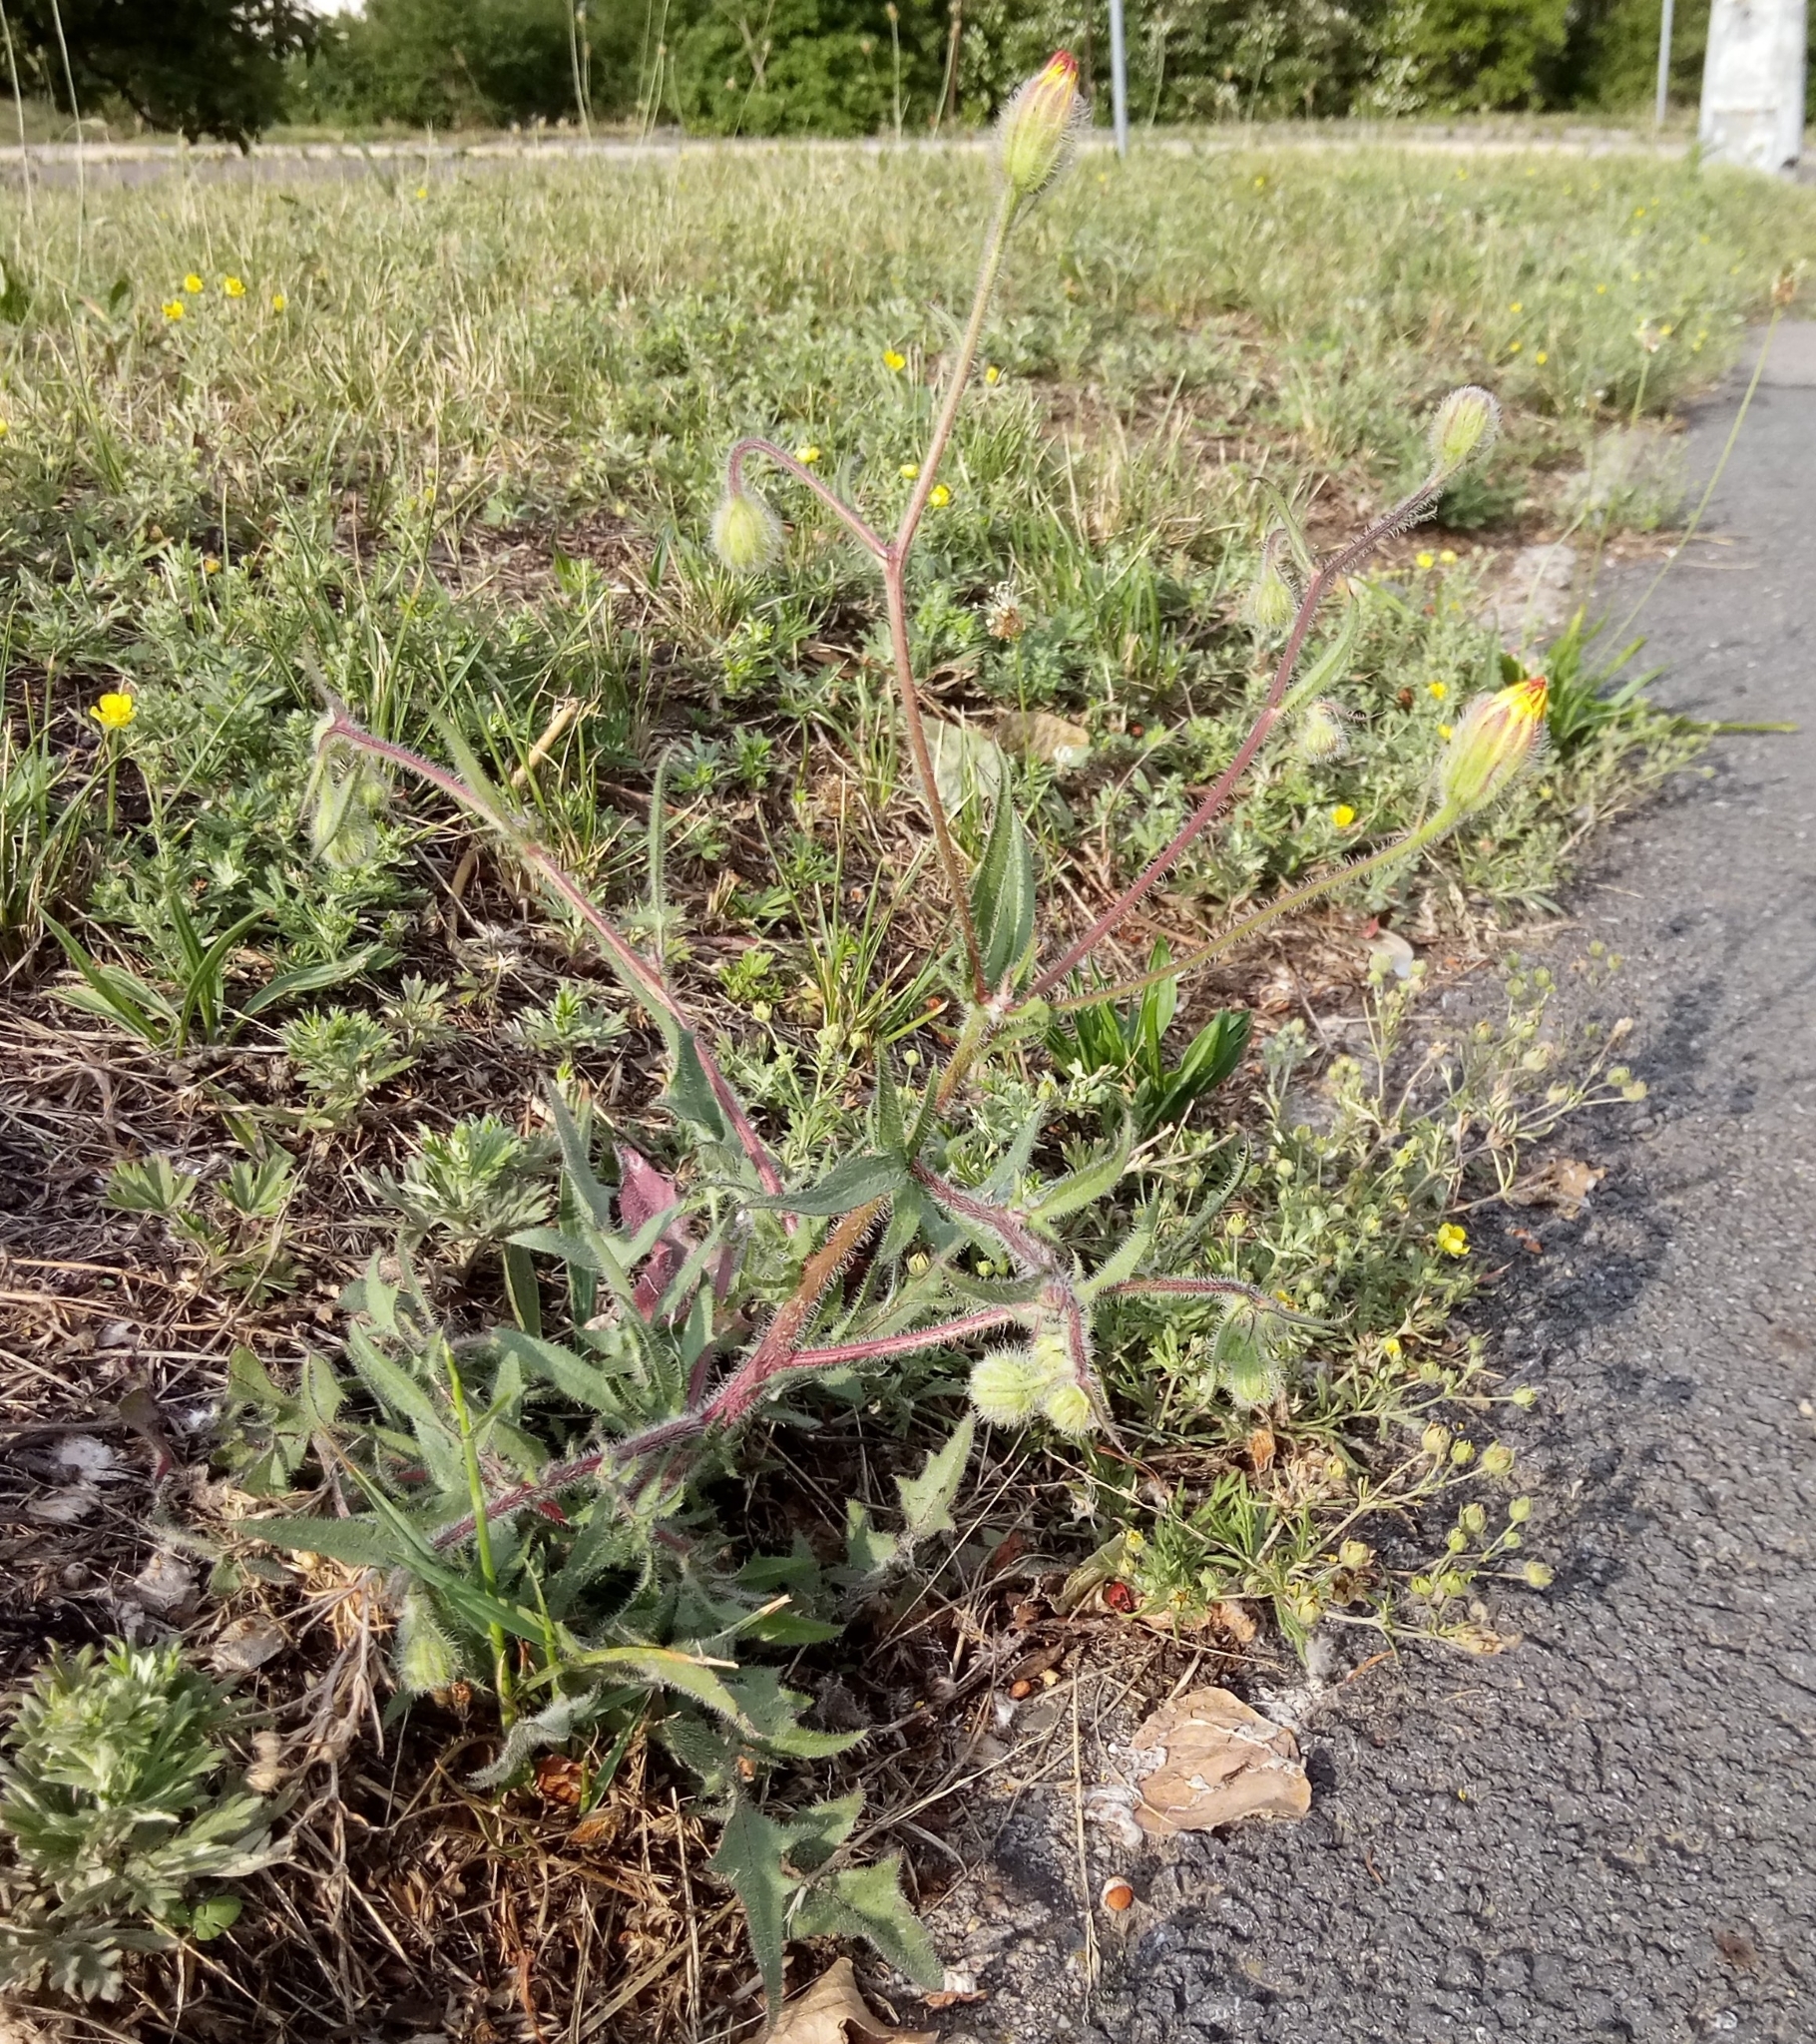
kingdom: Plantae
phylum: Tracheophyta
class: Magnoliopsida
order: Asterales
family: Asteraceae
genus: Crepis
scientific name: Crepis foetida
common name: Stinking hawk's-beard
